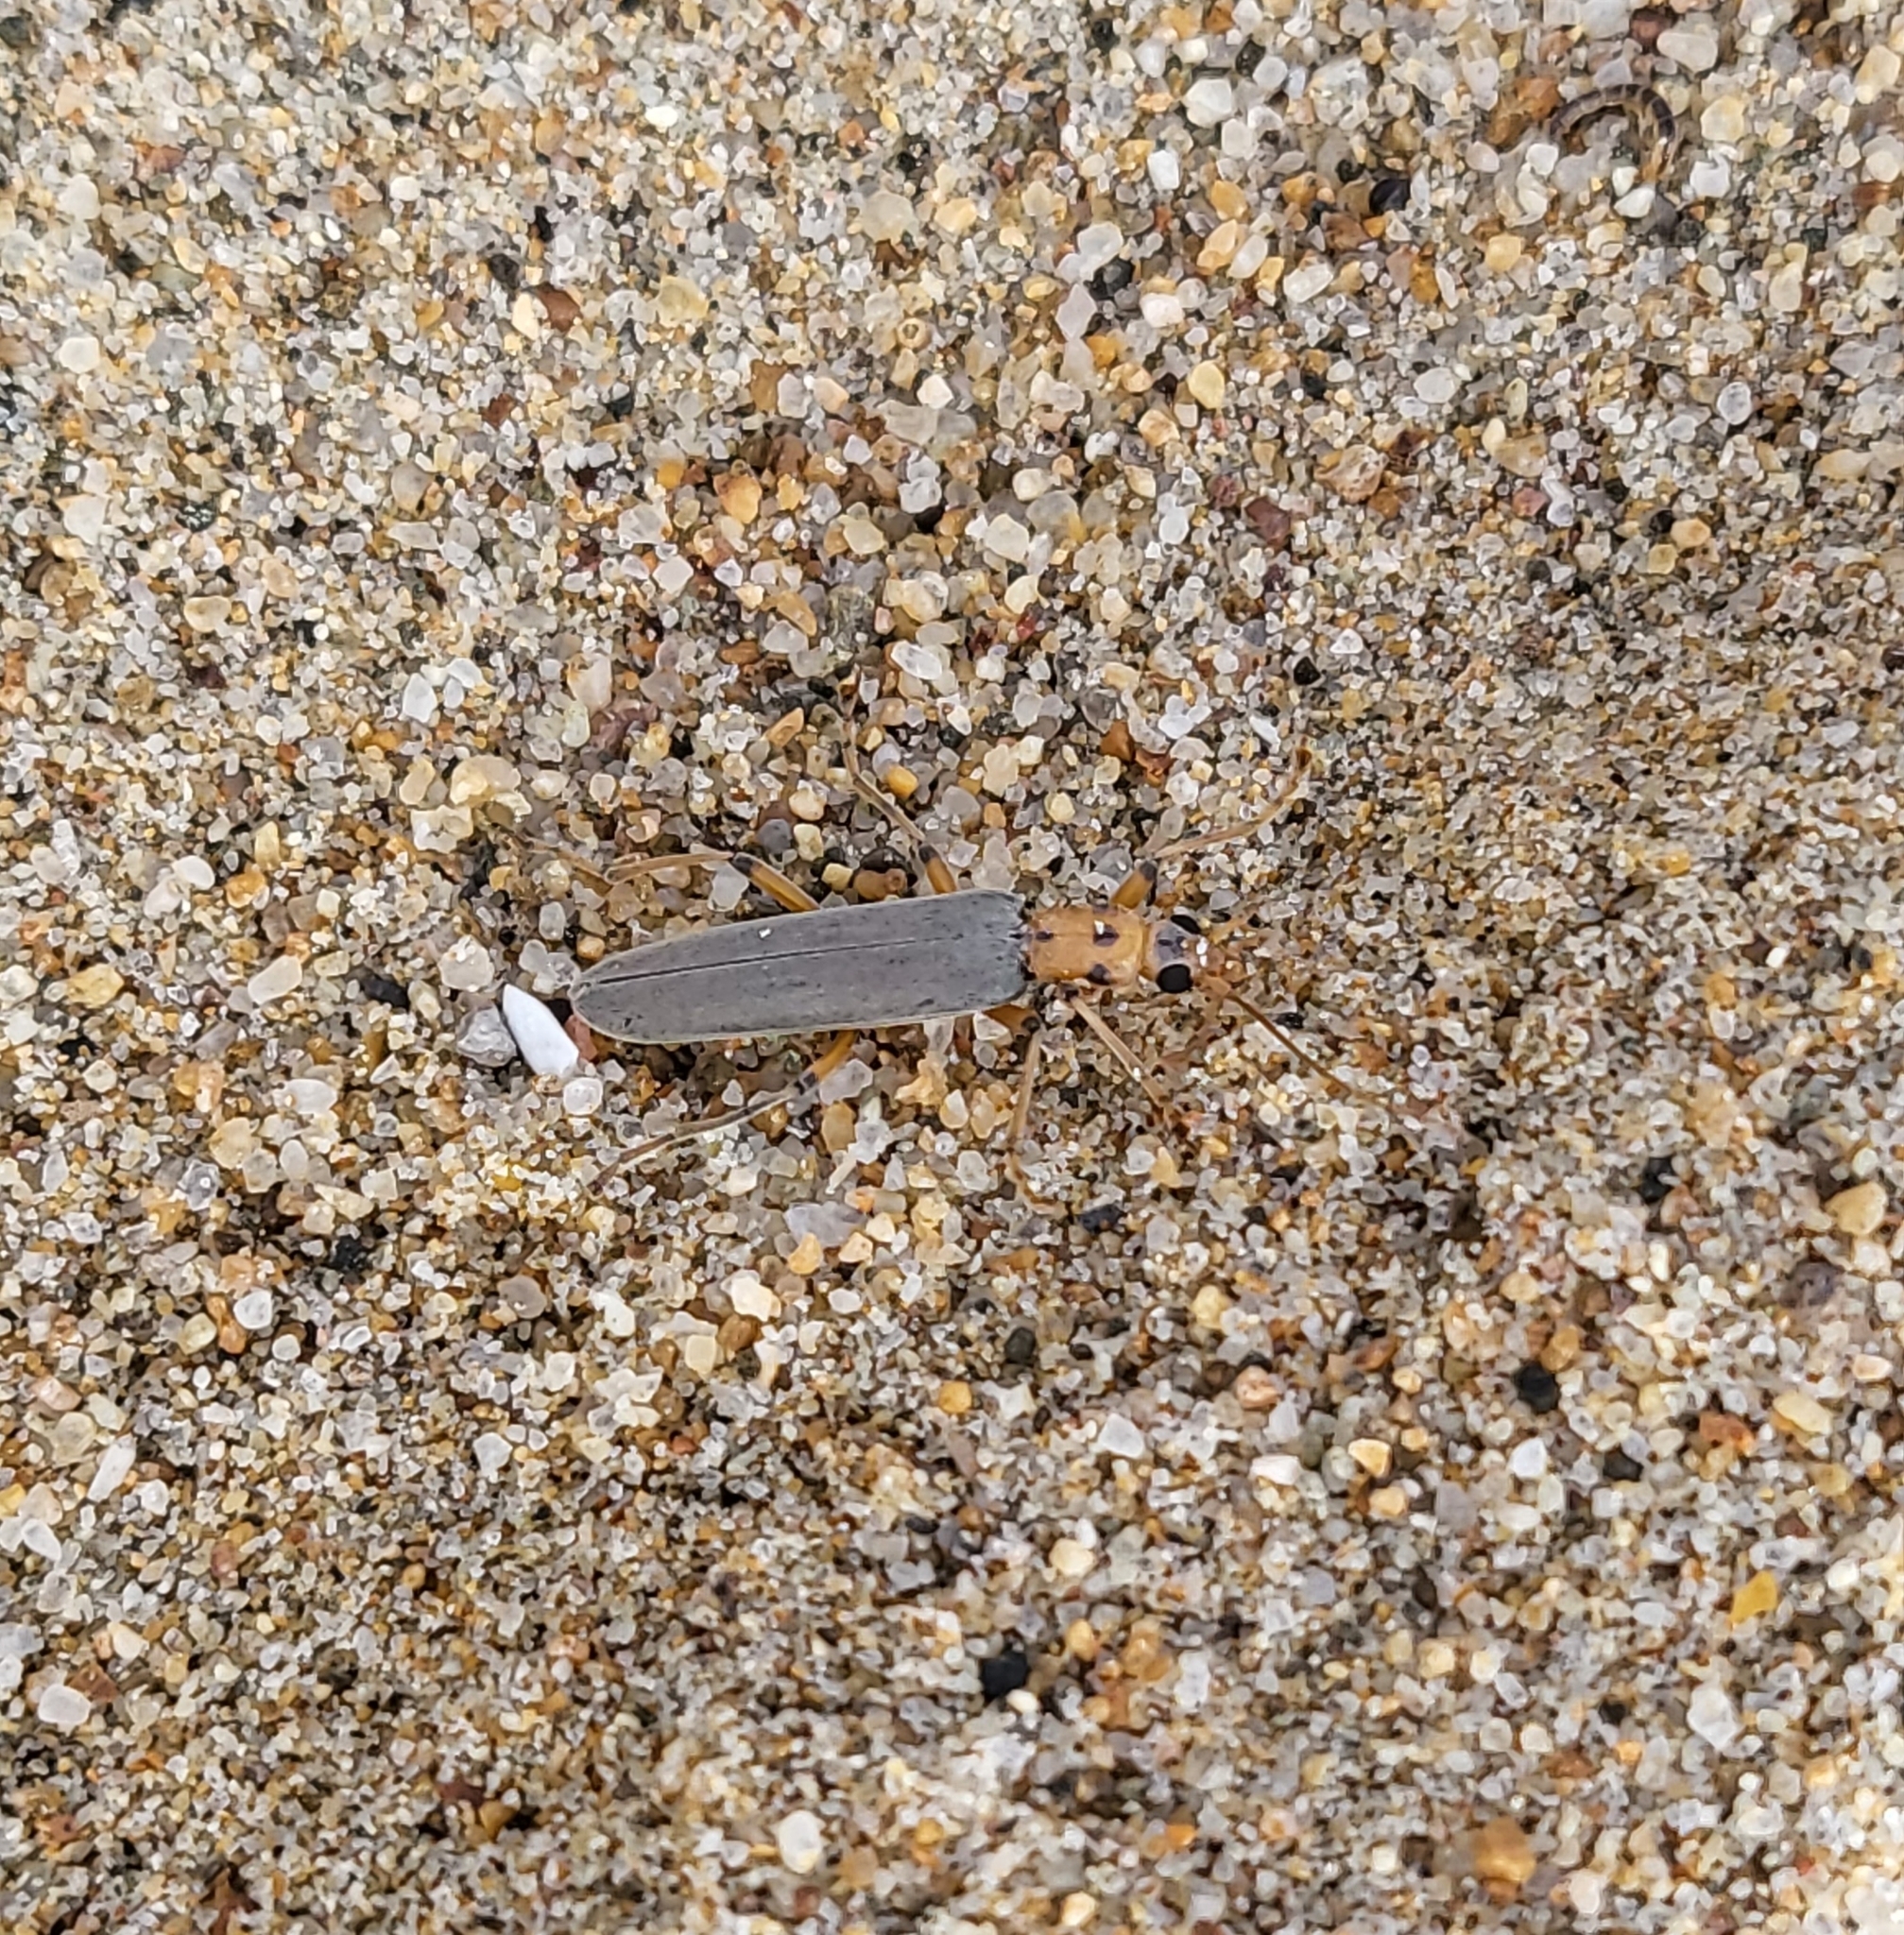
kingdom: Animalia
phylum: Arthropoda
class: Insecta
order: Coleoptera
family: Oedemeridae
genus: Copidita
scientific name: Copidita quadrimaculata
